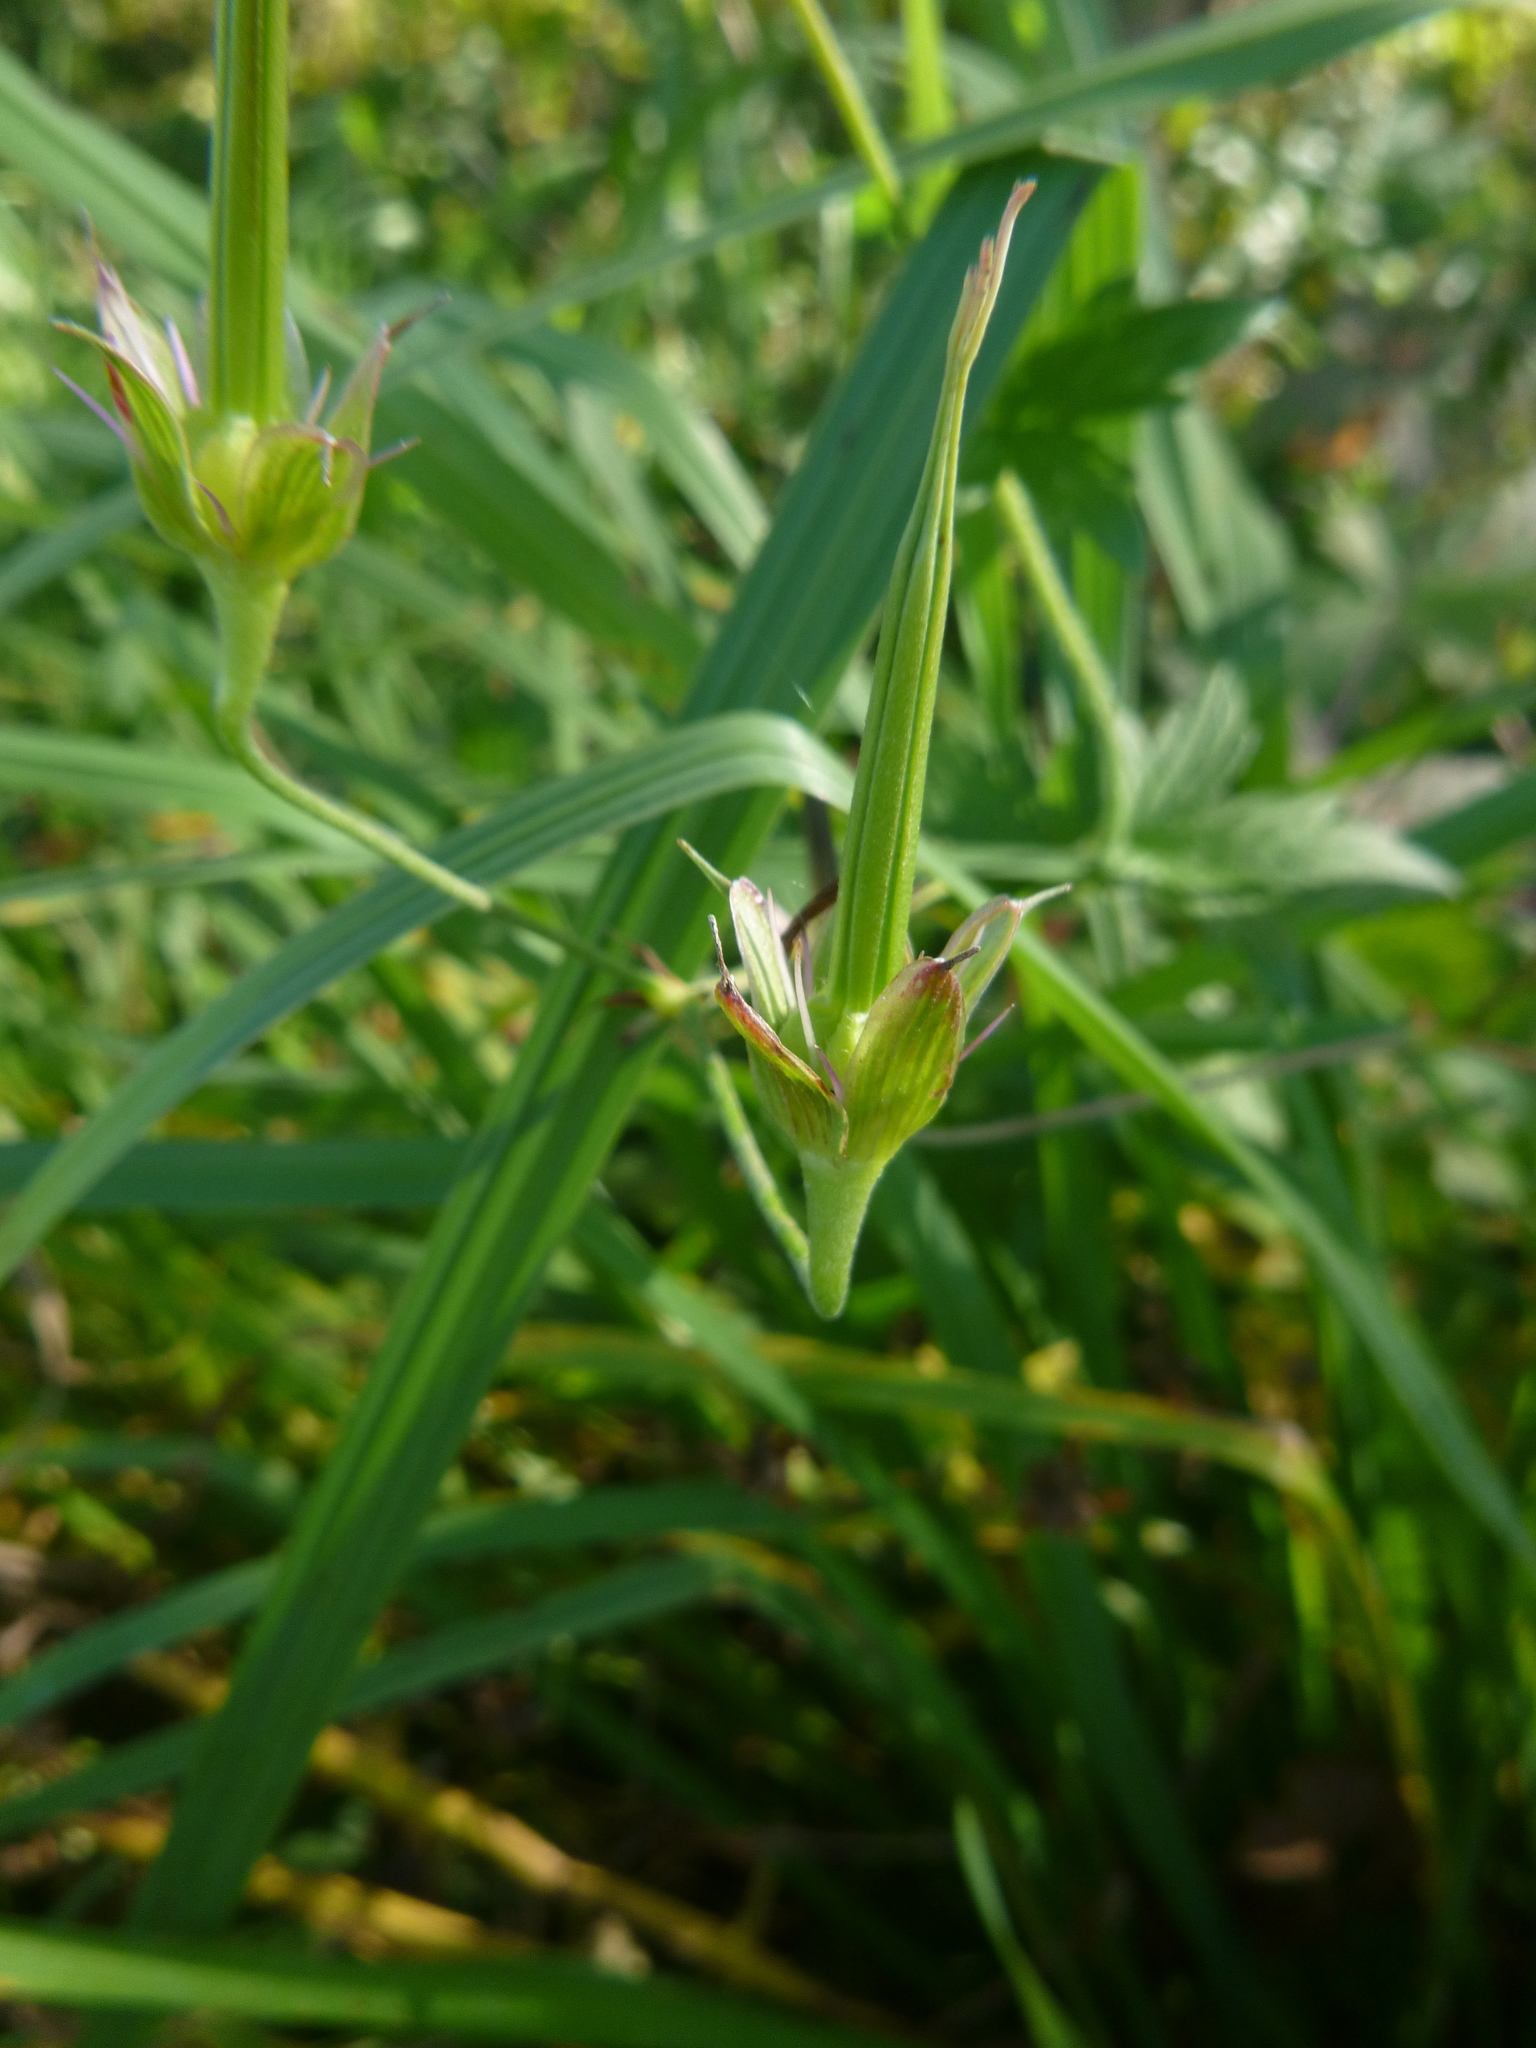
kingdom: Plantae
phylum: Tracheophyta
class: Magnoliopsida
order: Geraniales
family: Geraniaceae
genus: Geranium
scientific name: Geranium palustre
